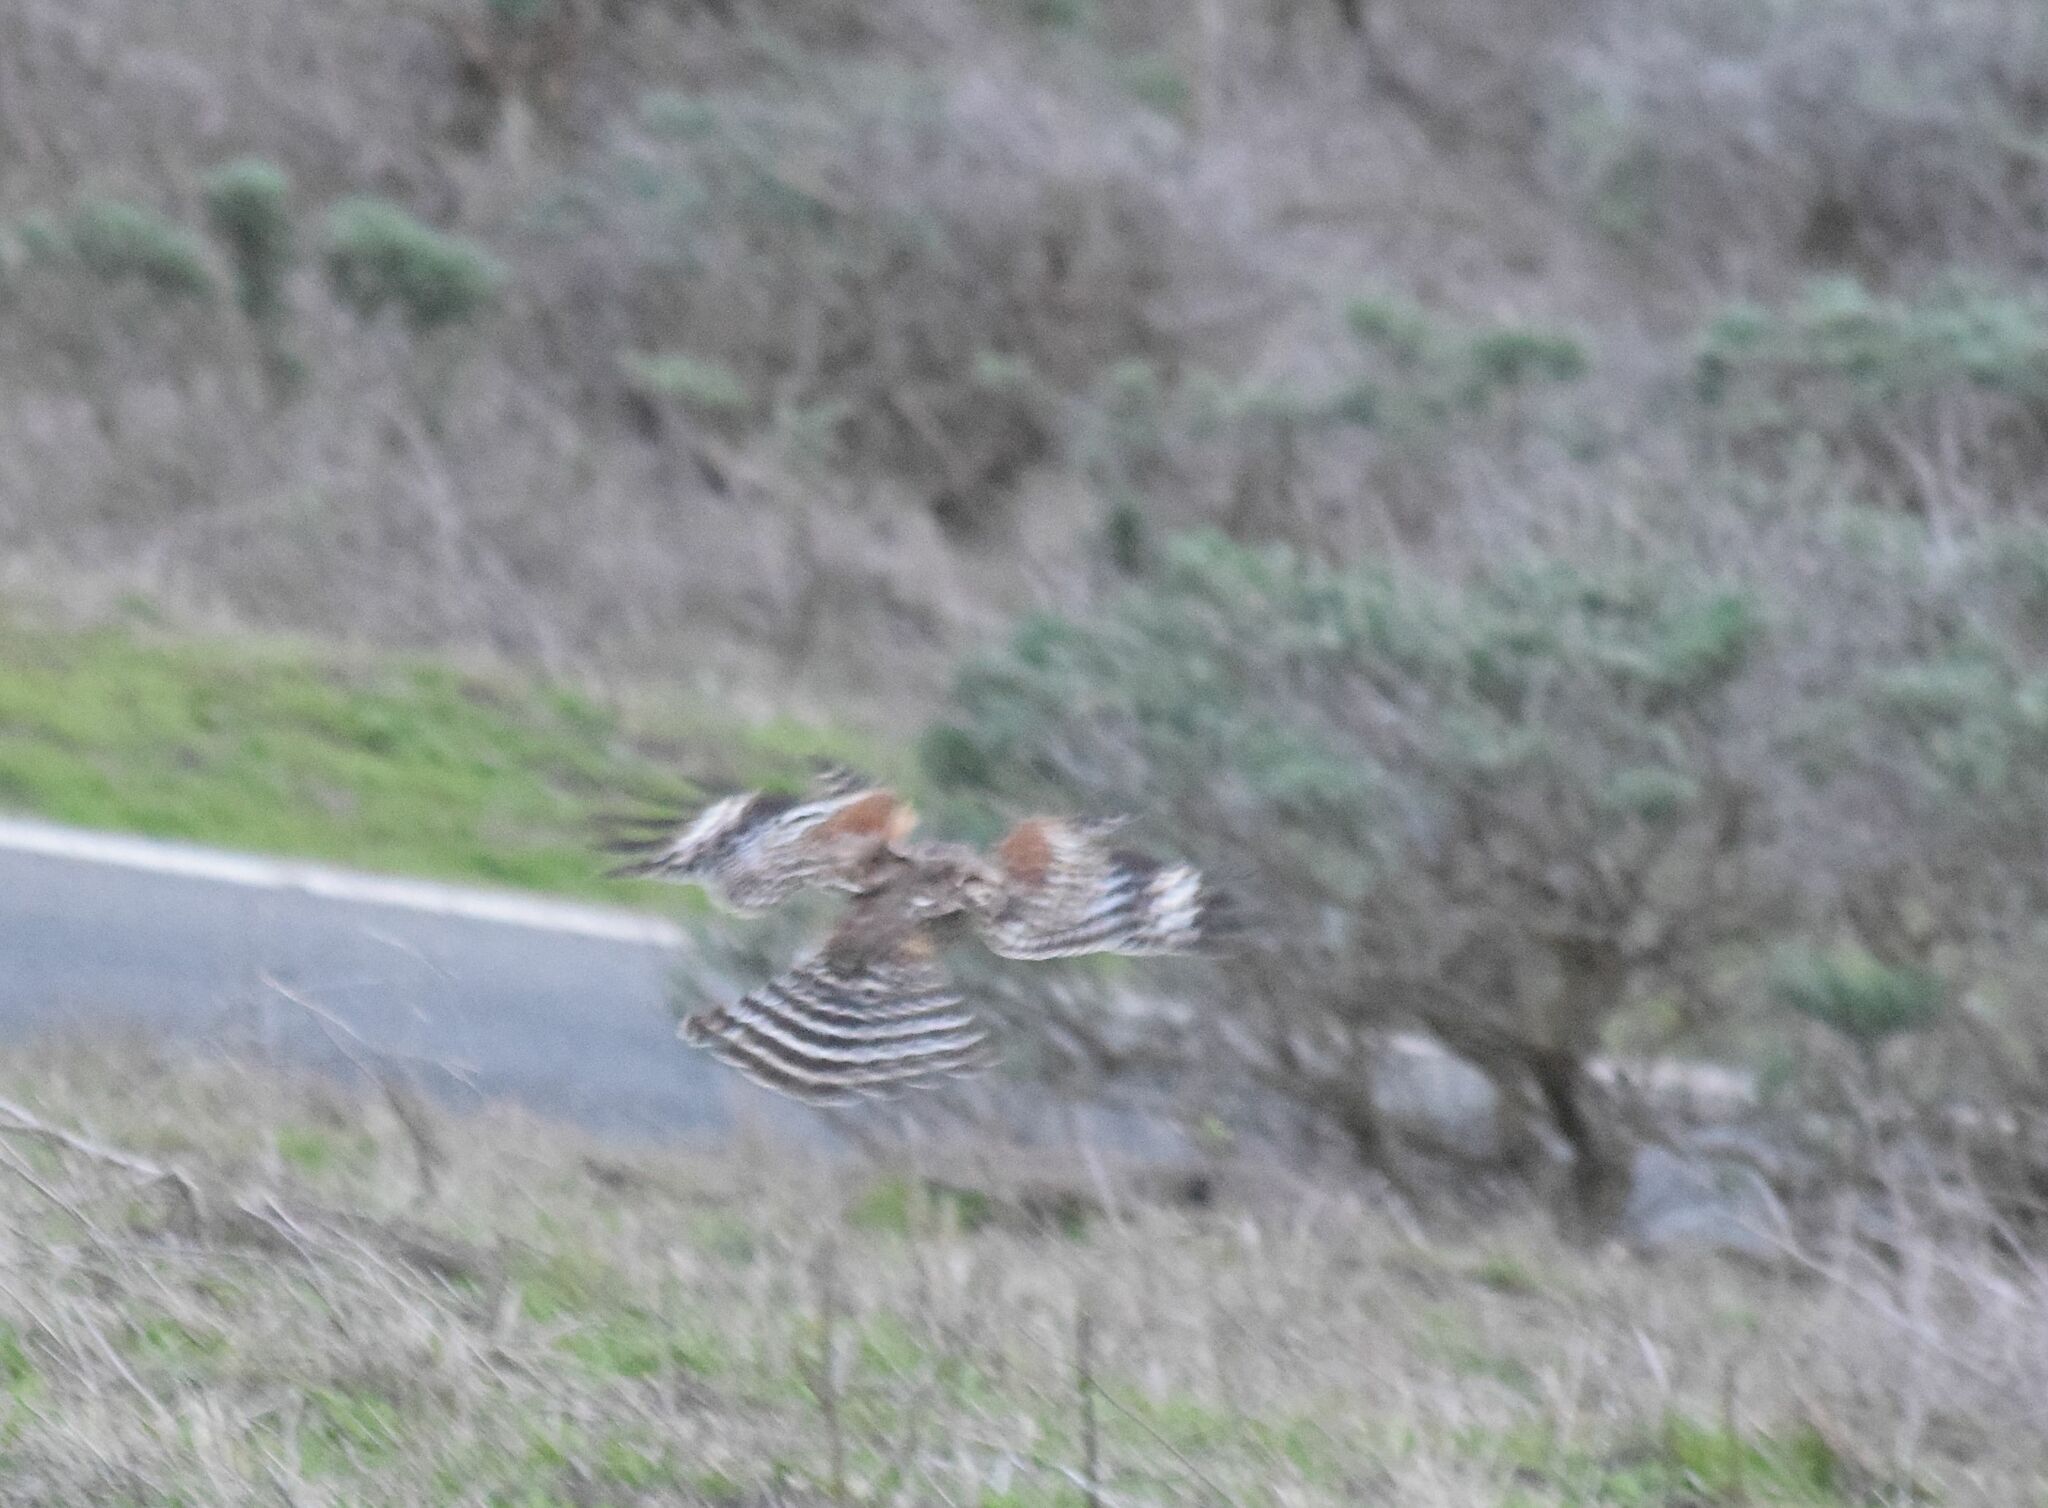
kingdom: Animalia
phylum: Chordata
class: Aves
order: Accipitriformes
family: Accipitridae
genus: Buteo
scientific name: Buteo lineatus
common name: Red-shouldered hawk
